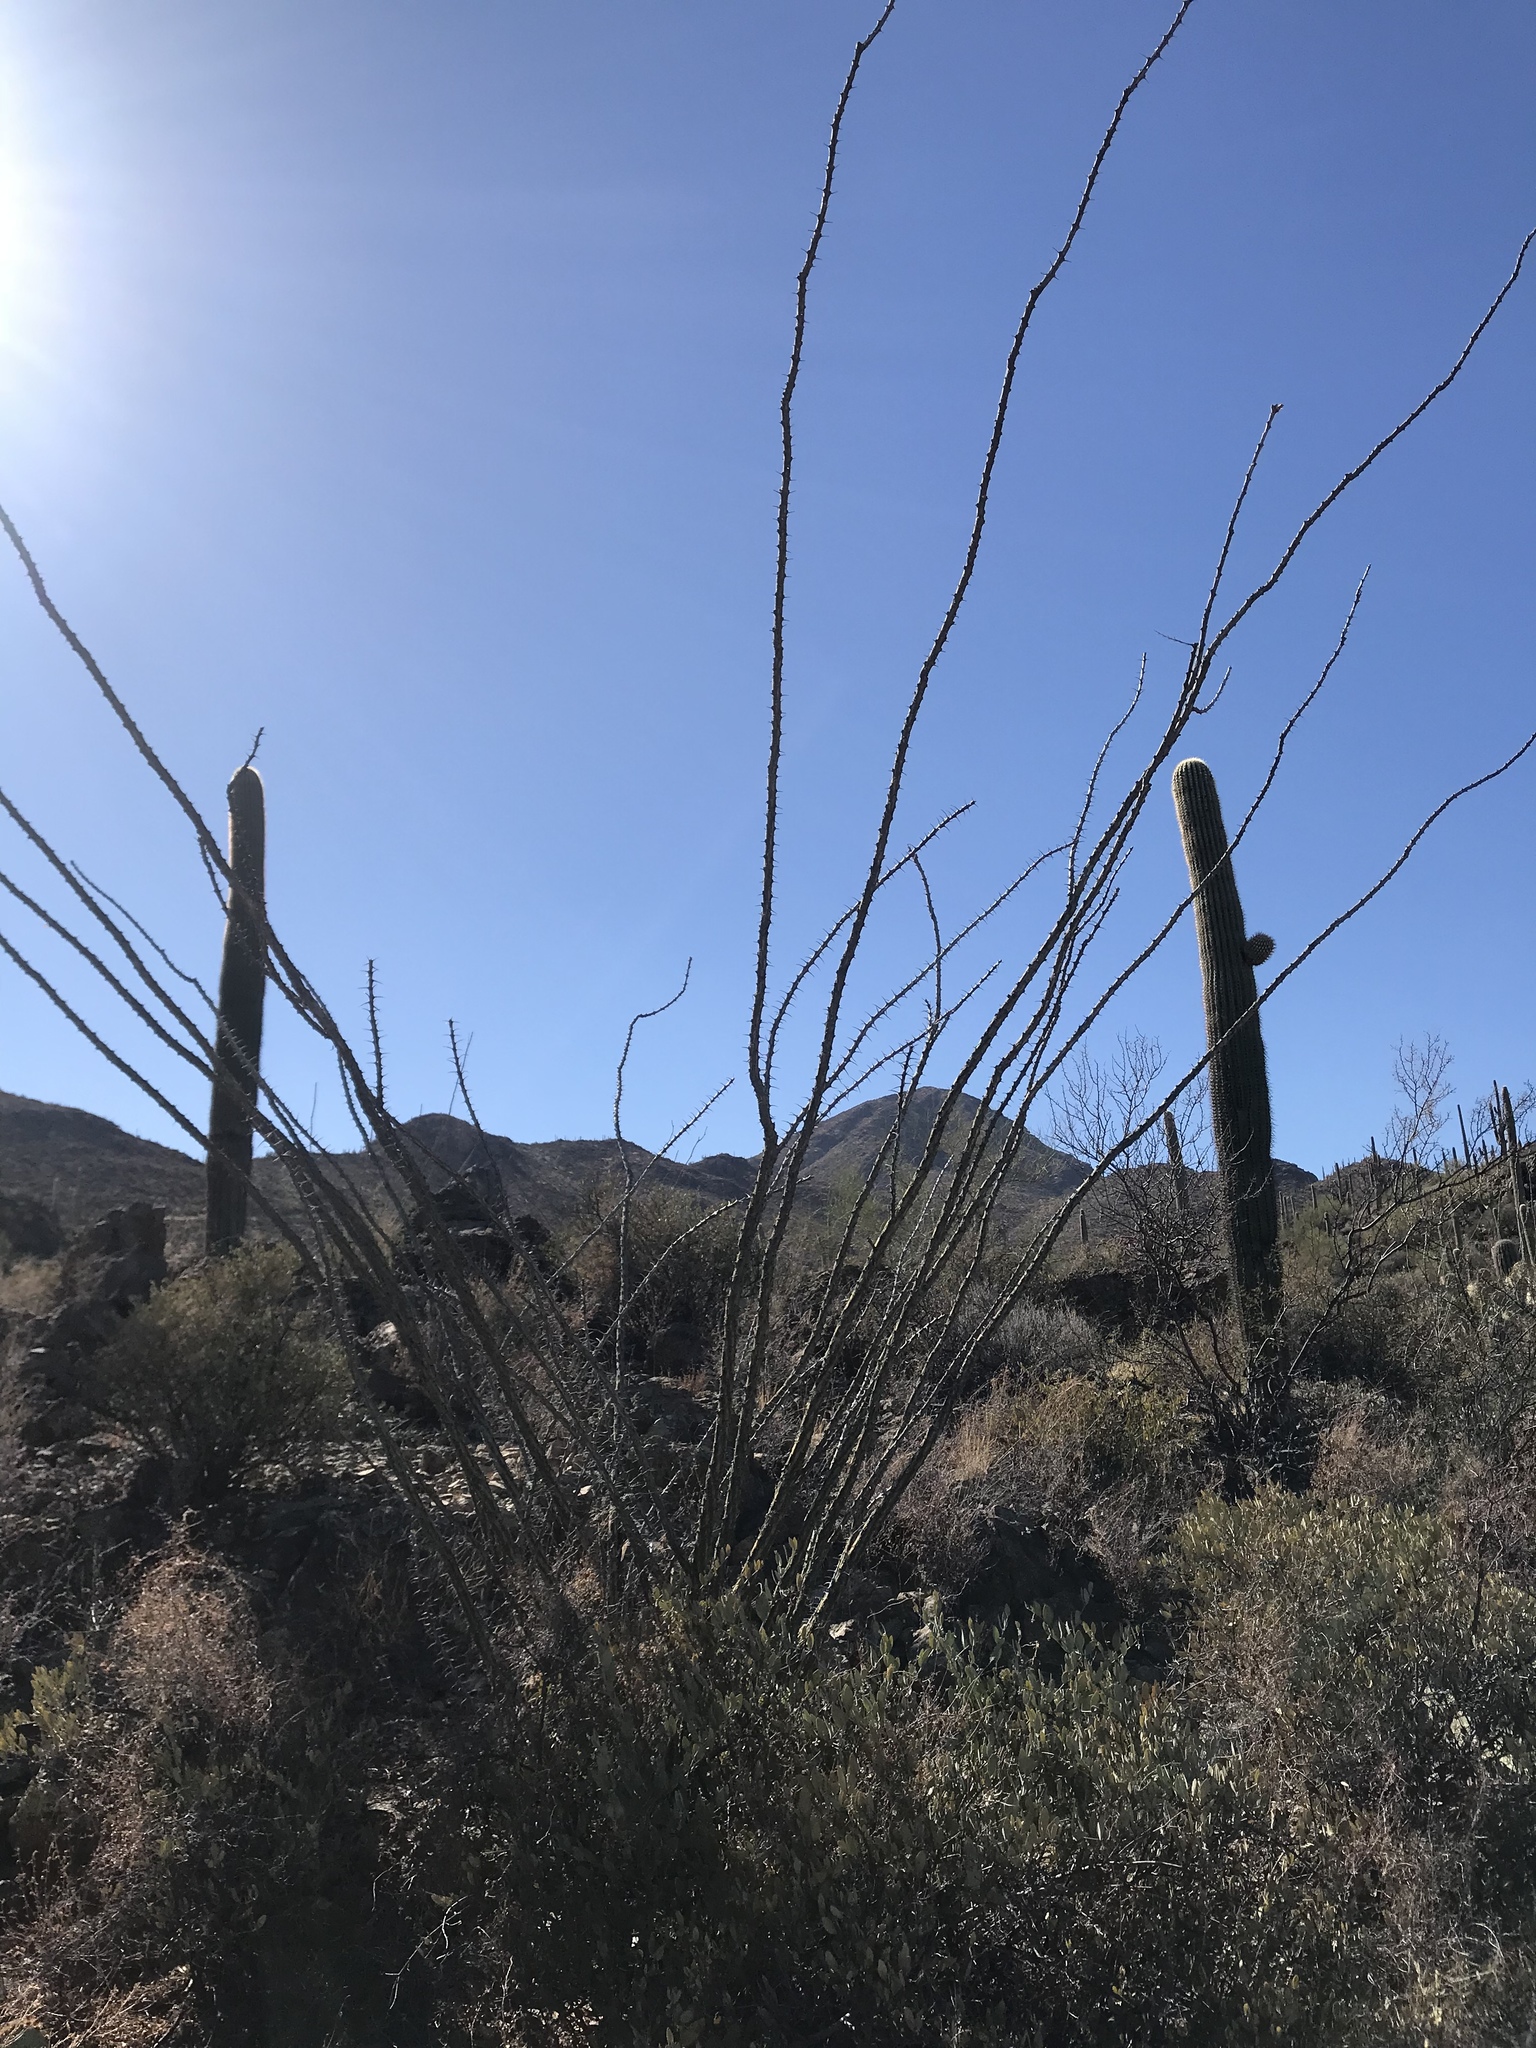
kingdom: Plantae
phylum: Tracheophyta
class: Magnoliopsida
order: Ericales
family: Fouquieriaceae
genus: Fouquieria
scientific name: Fouquieria splendens
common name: Vine-cactus
